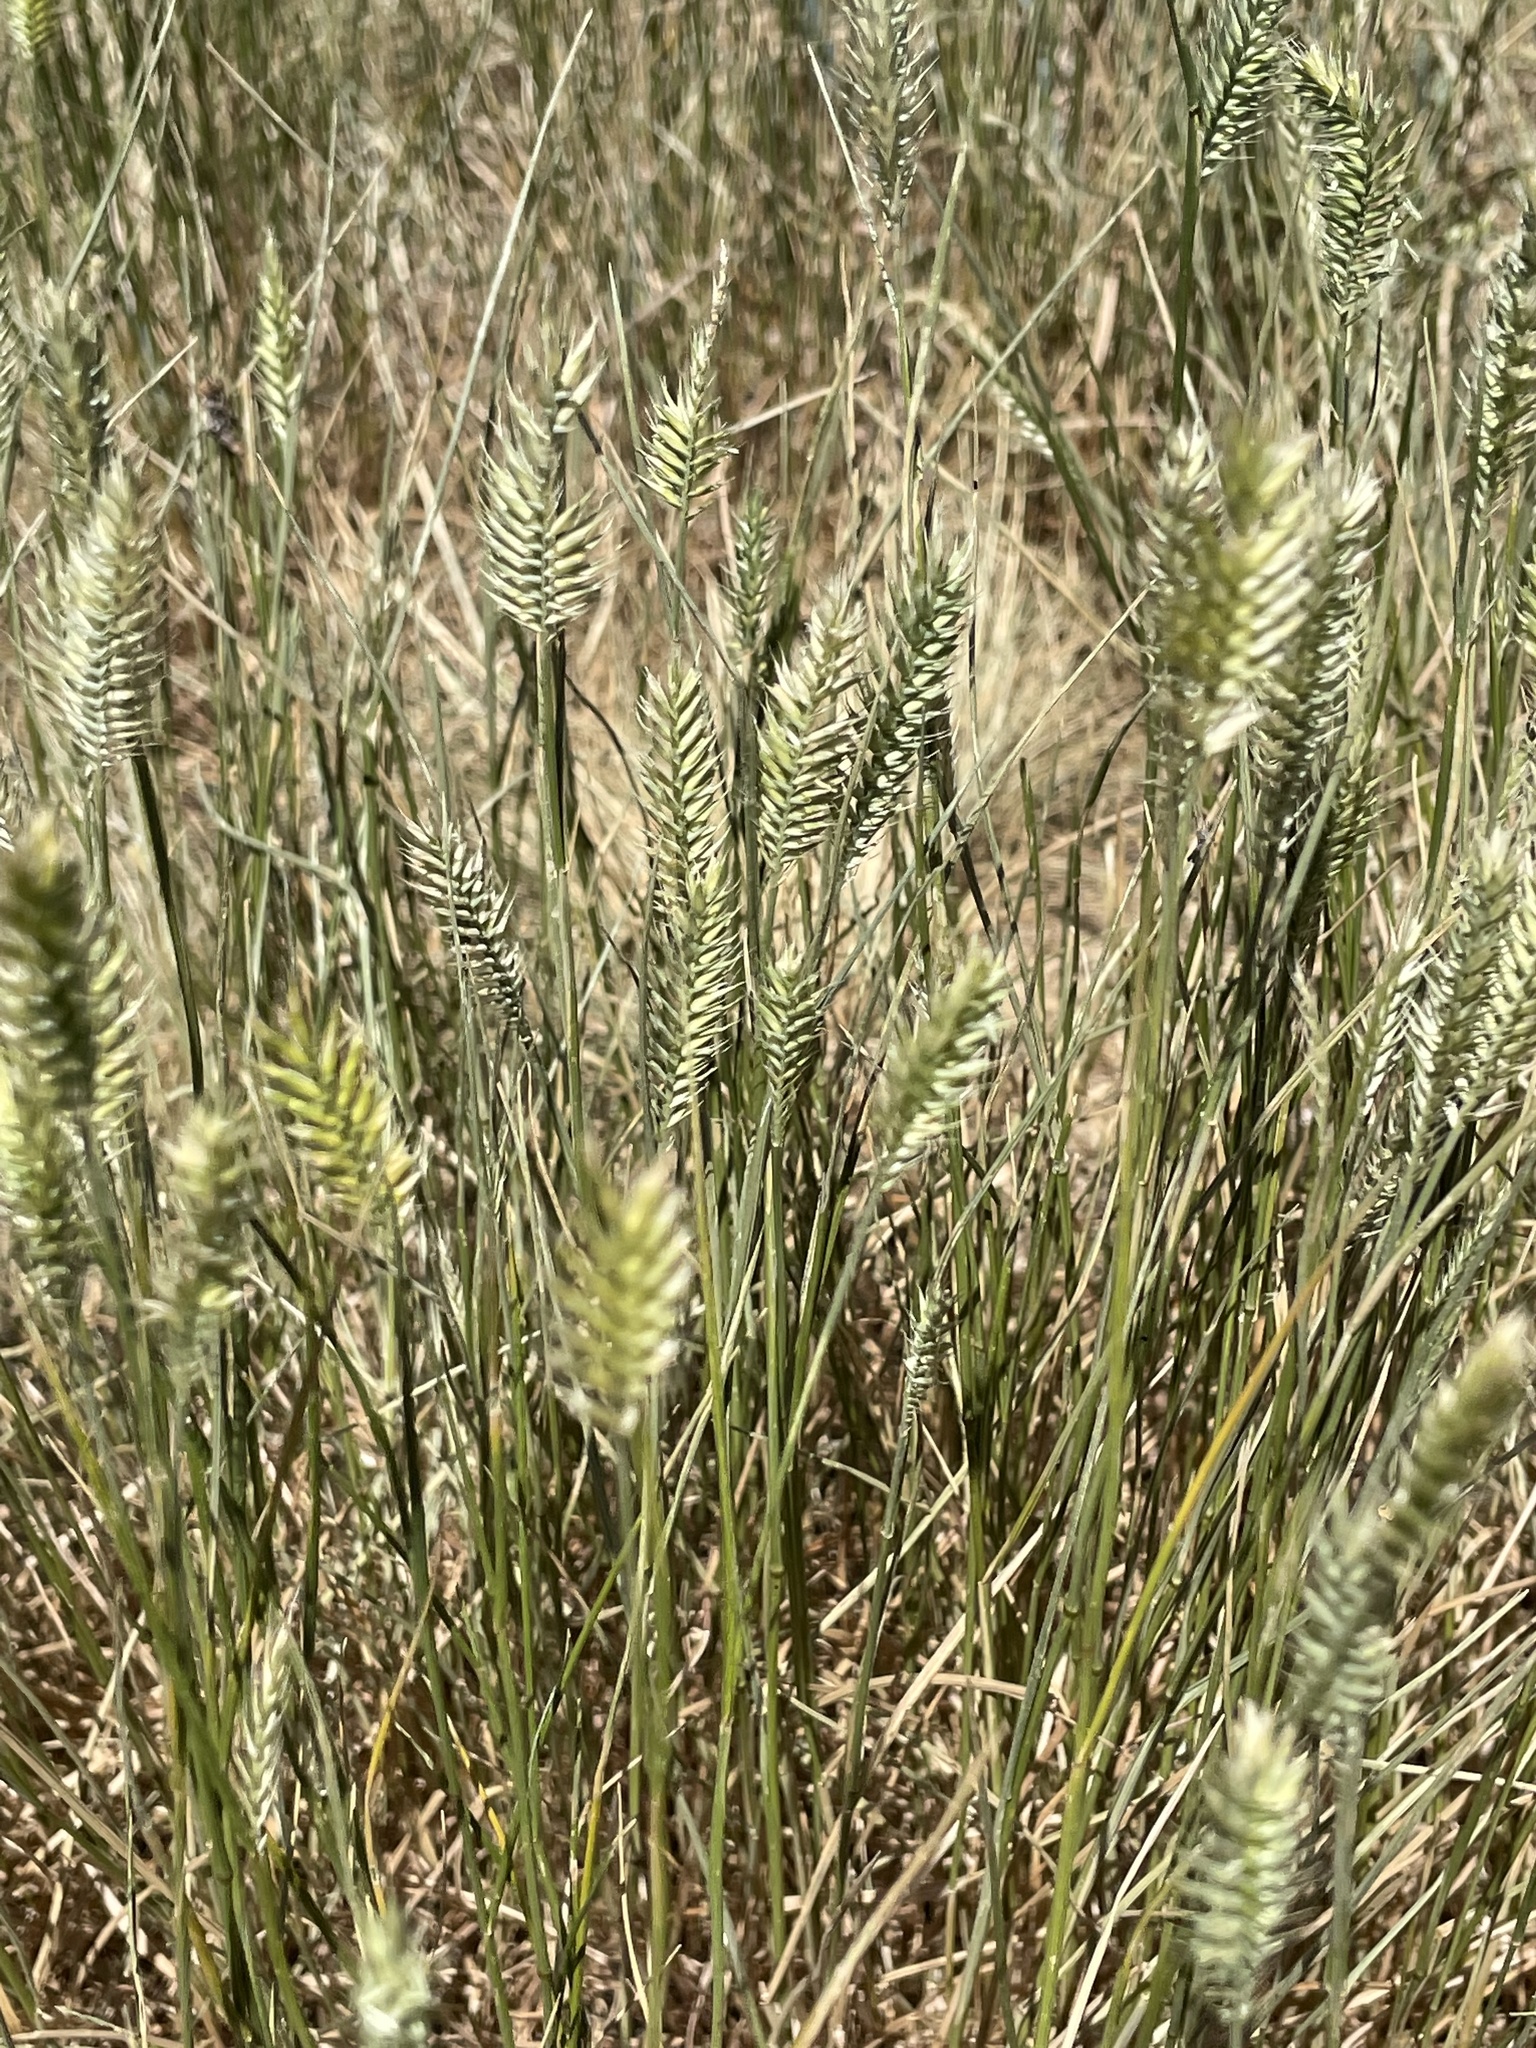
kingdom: Plantae
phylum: Tracheophyta
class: Liliopsida
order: Poales
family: Poaceae
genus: Agropyron
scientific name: Agropyron cristatum
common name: Crested wheatgrass
